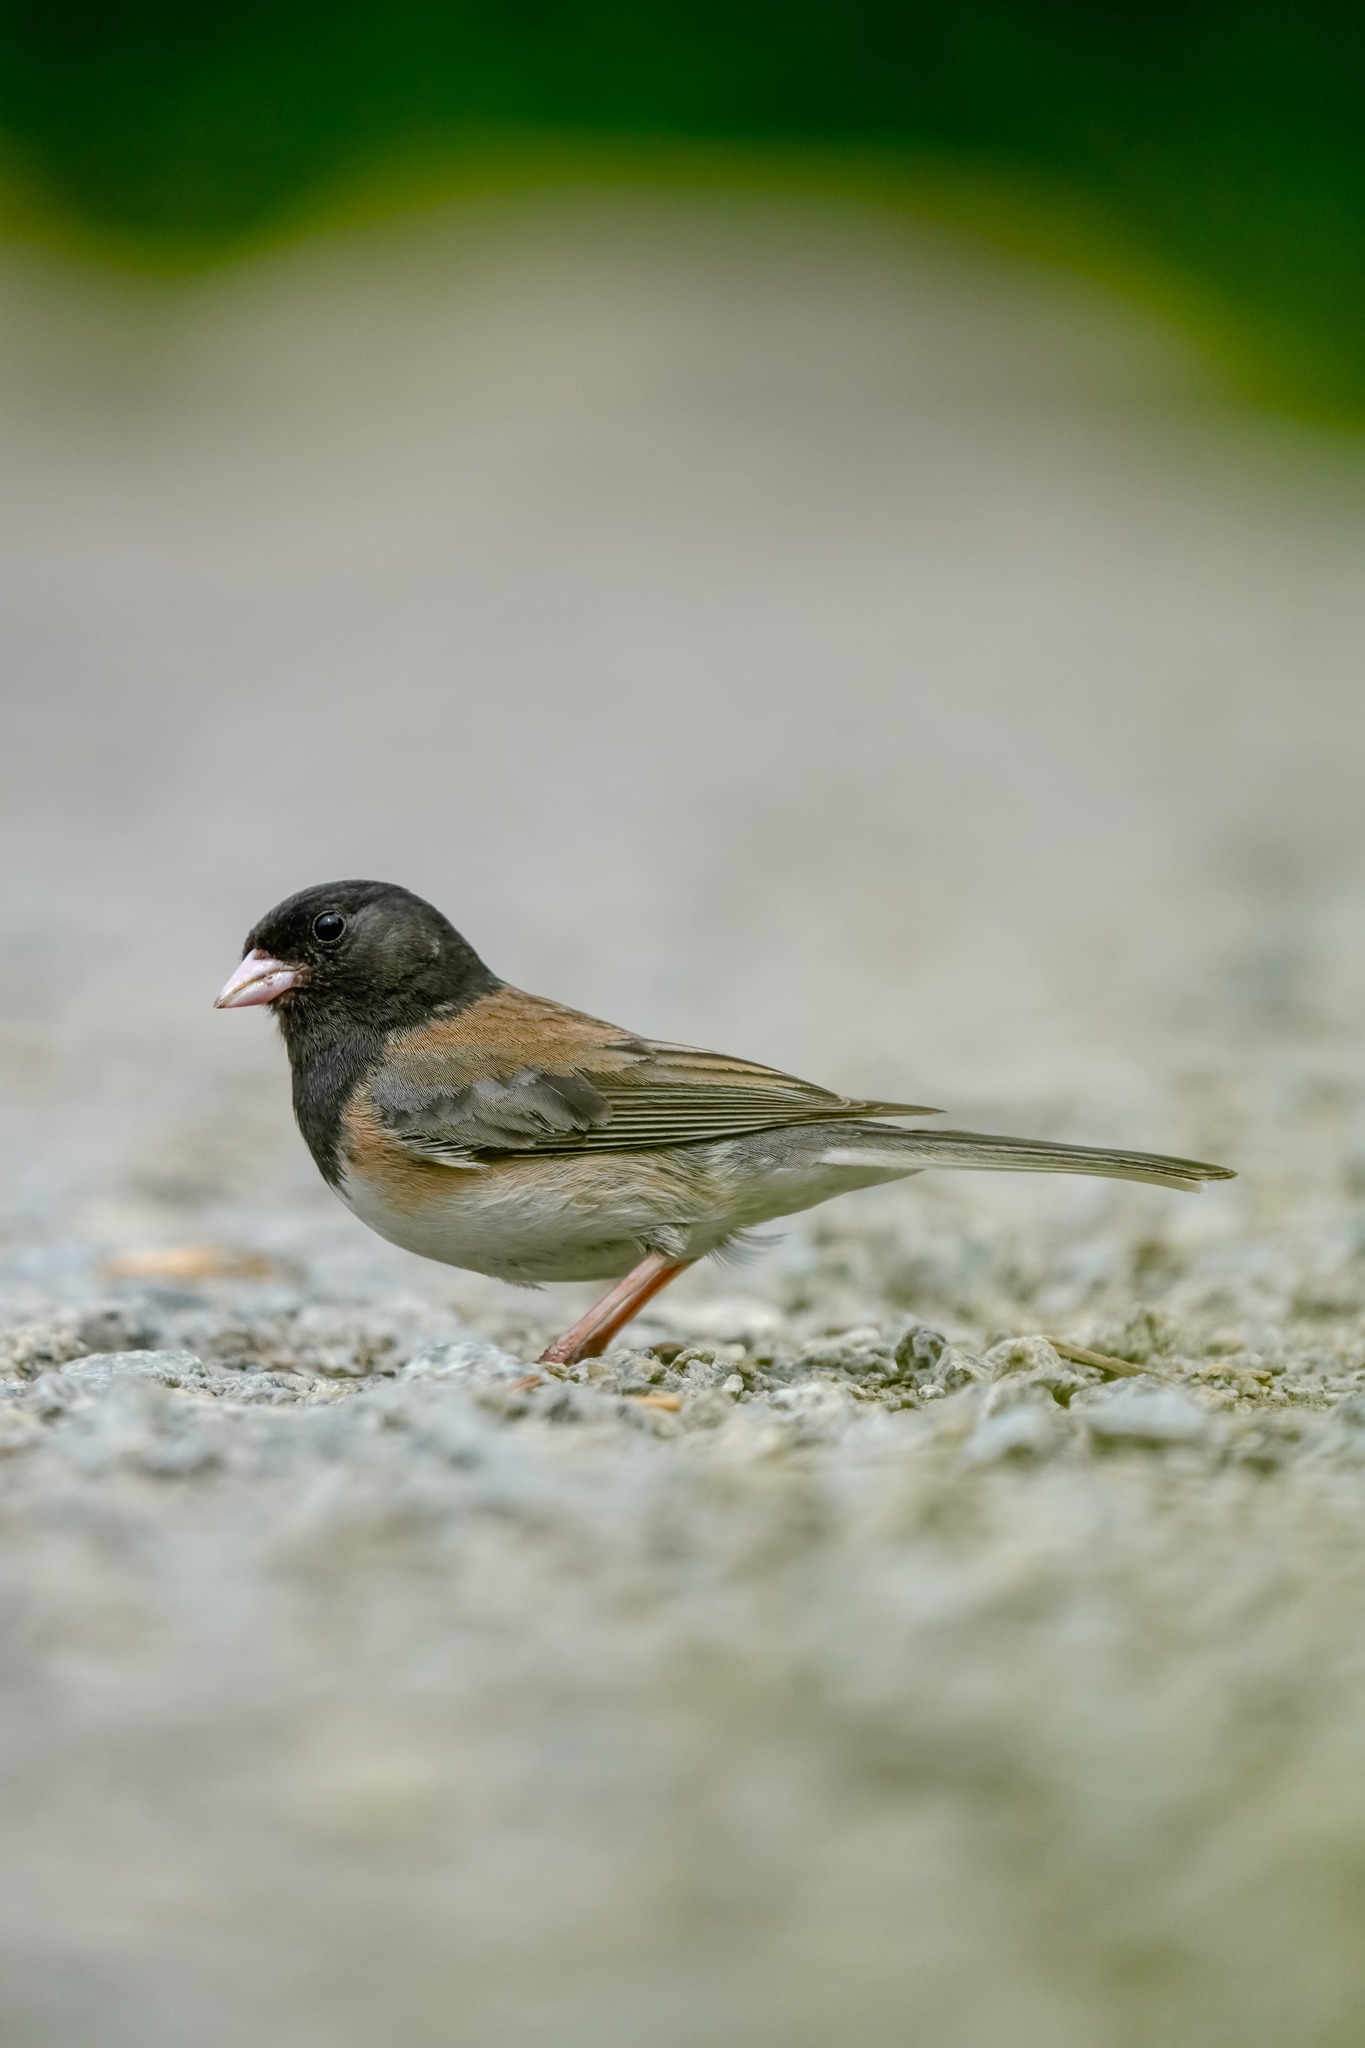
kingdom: Animalia
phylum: Chordata
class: Aves
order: Passeriformes
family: Passerellidae
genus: Junco
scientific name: Junco hyemalis
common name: Dark-eyed junco
